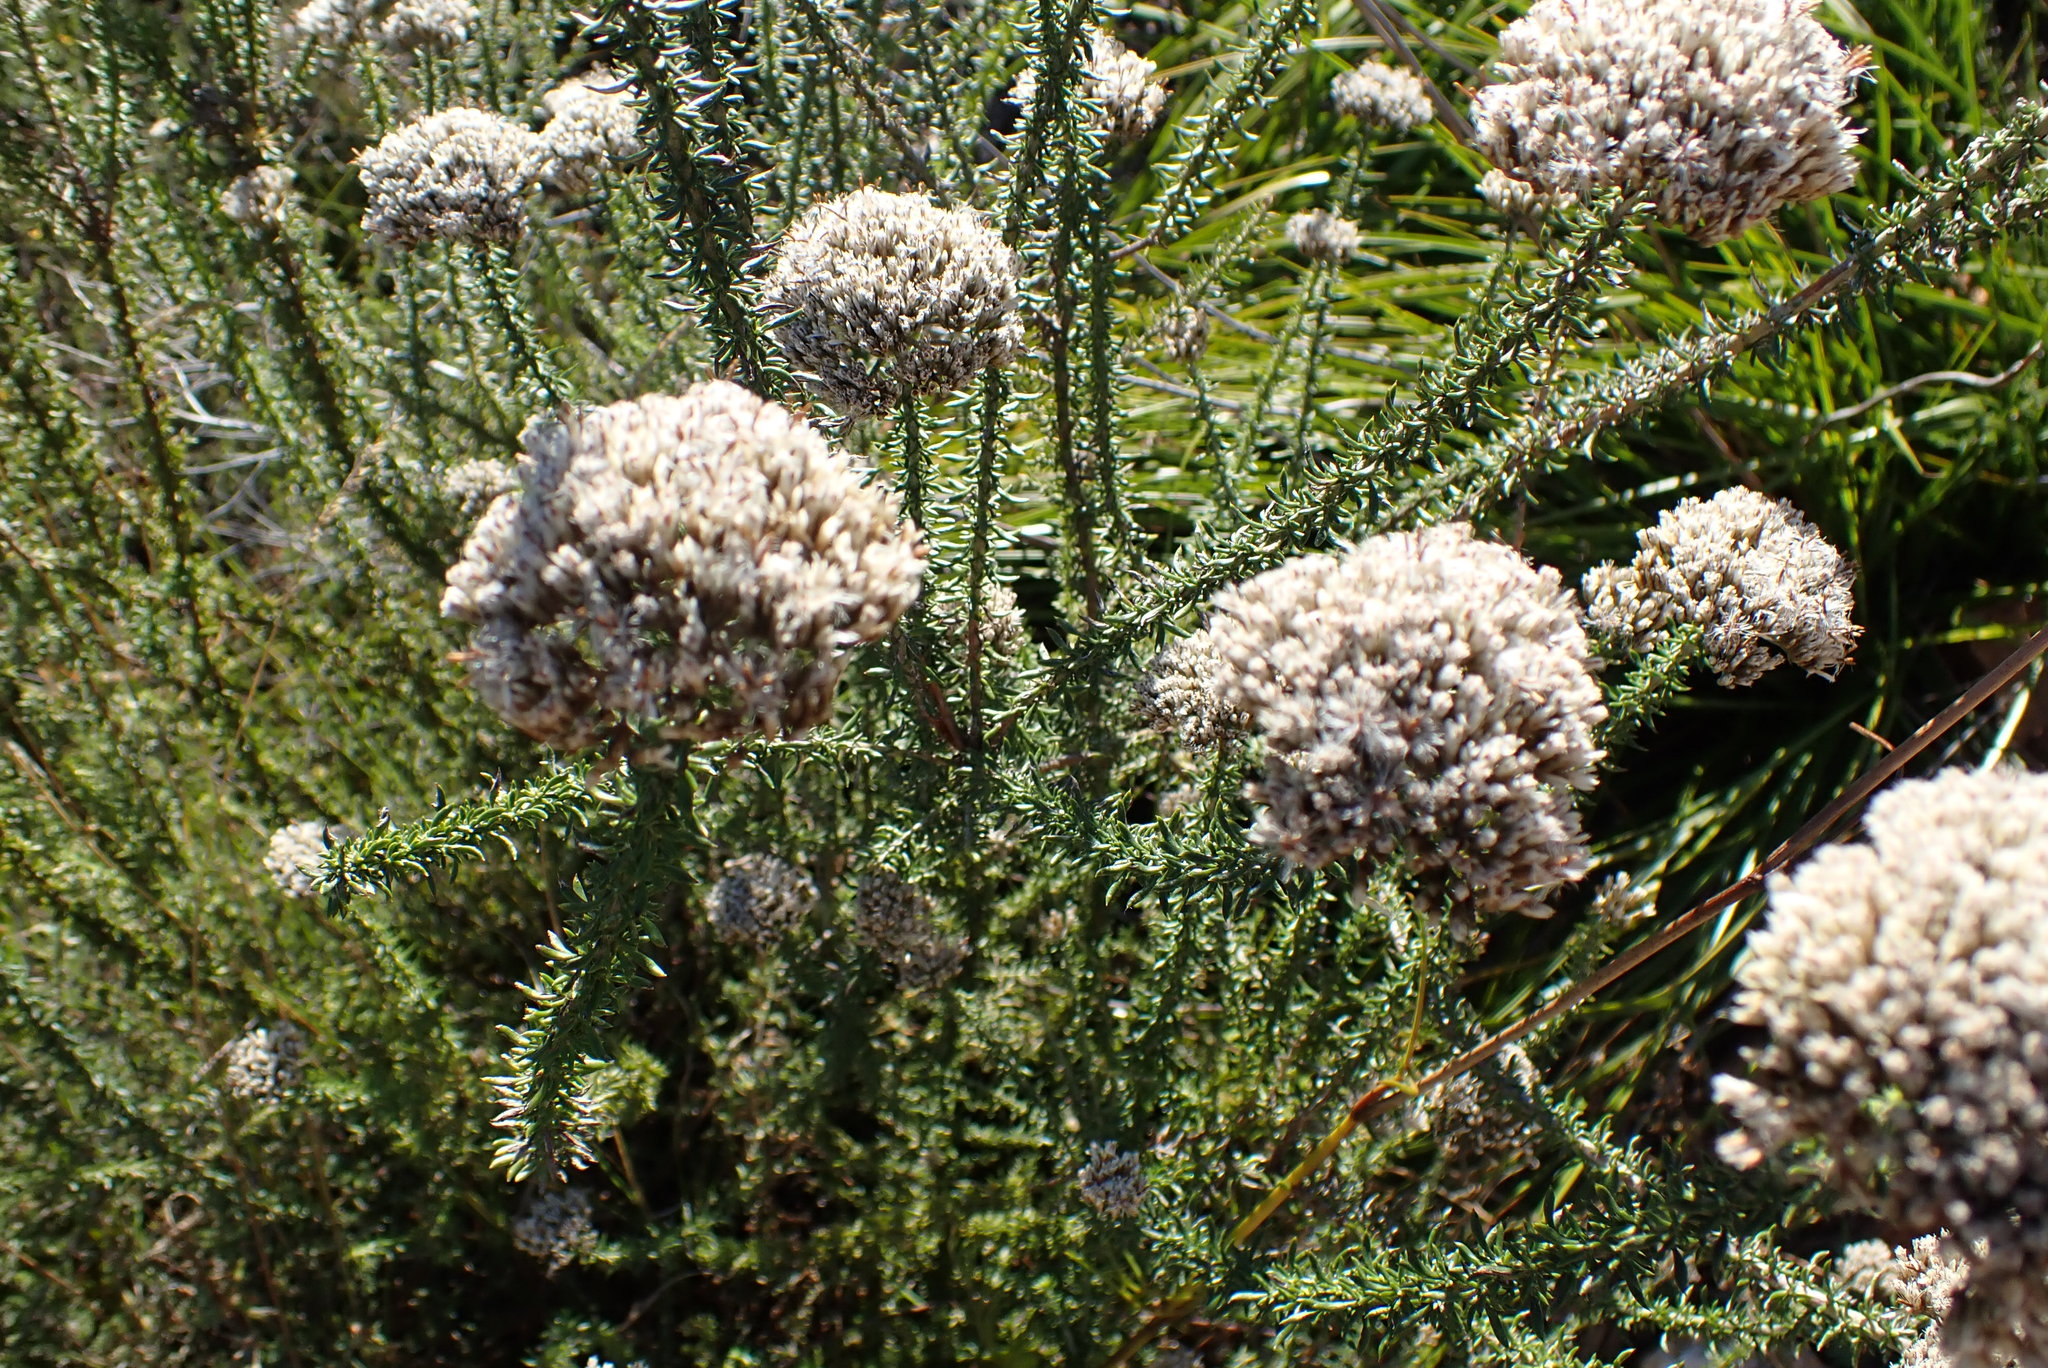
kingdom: Plantae
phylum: Tracheophyta
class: Magnoliopsida
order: Asterales
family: Asteraceae
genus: Metalasia
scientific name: Metalasia trivialis
